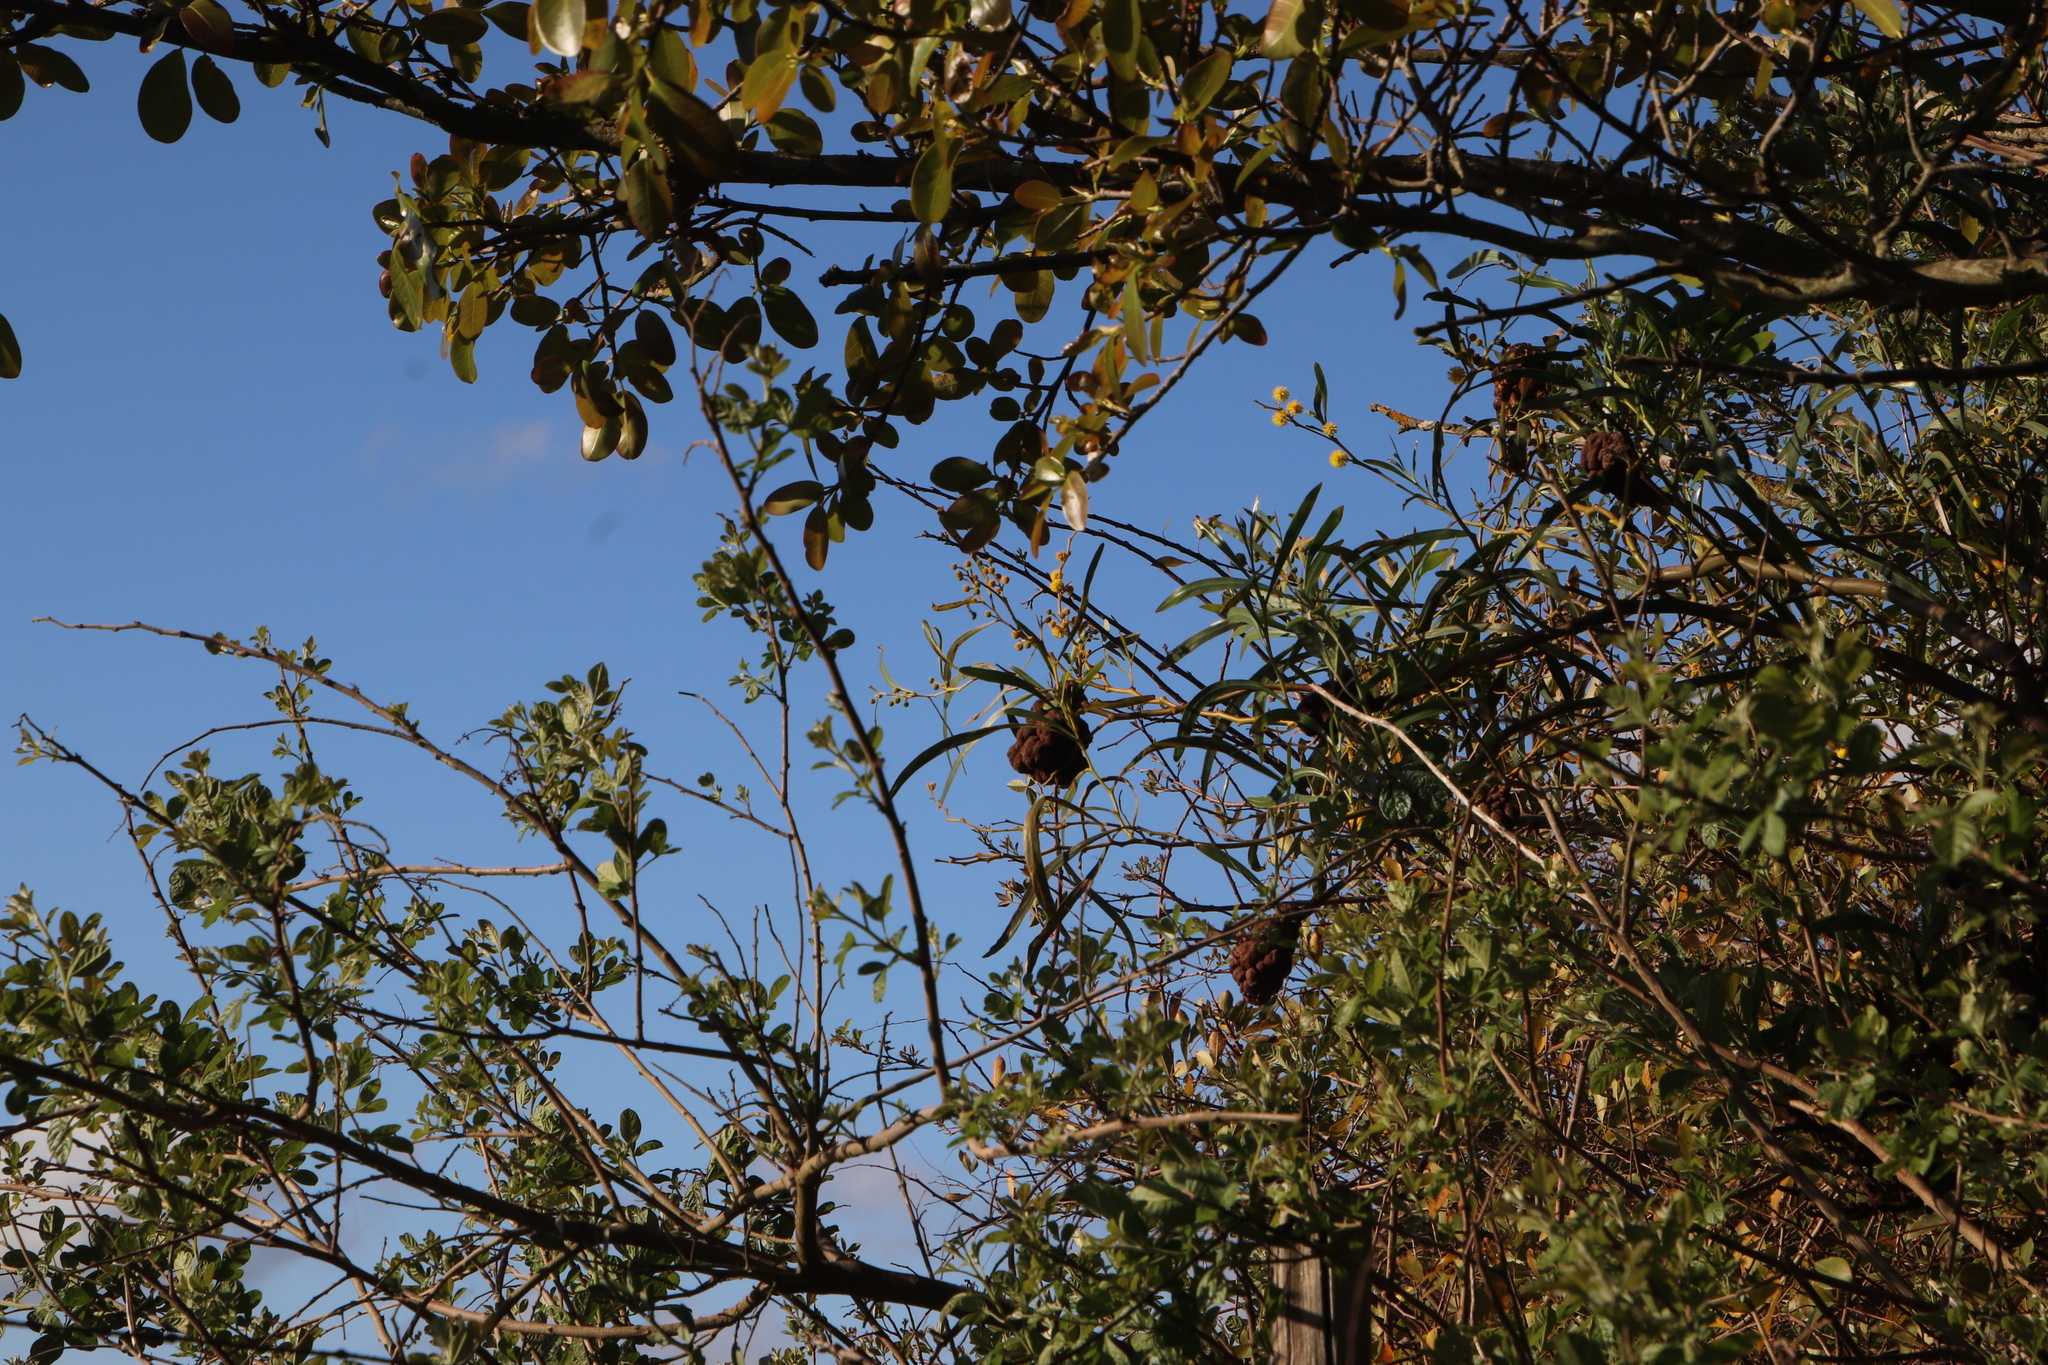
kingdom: Plantae
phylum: Tracheophyta
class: Magnoliopsida
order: Fabales
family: Fabaceae
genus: Acacia
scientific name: Acacia saligna
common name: Orange wattle
